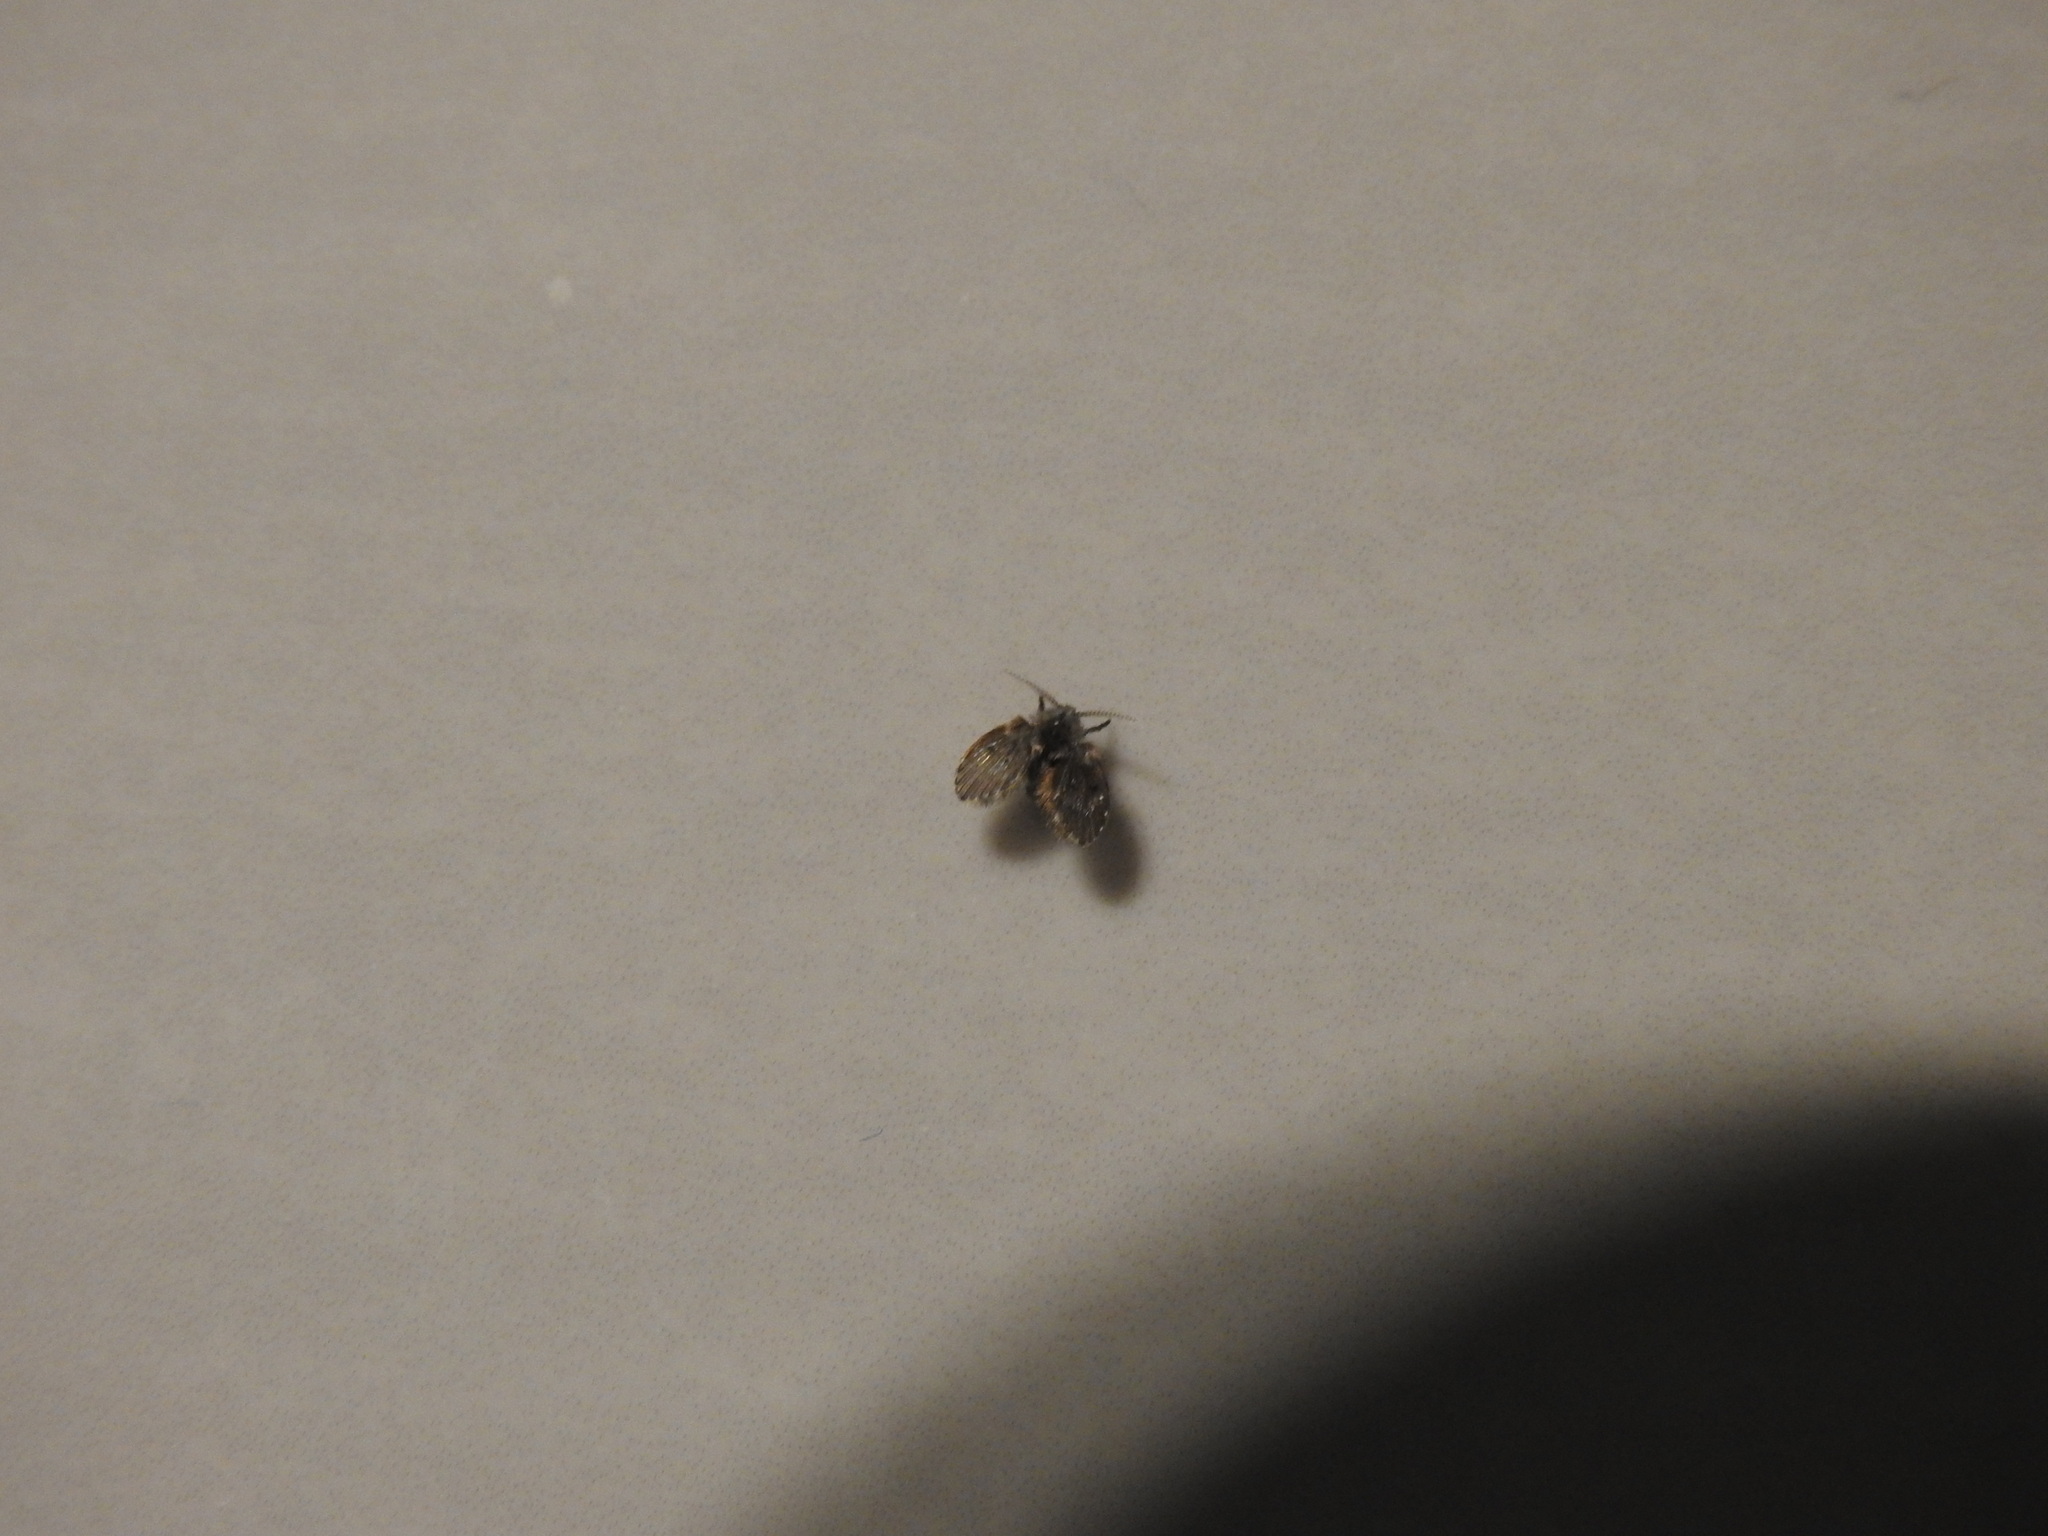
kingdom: Animalia
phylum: Arthropoda
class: Insecta
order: Diptera
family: Psychodidae
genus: Clogmia
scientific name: Clogmia albipunctatus
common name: White-spotted moth fly
